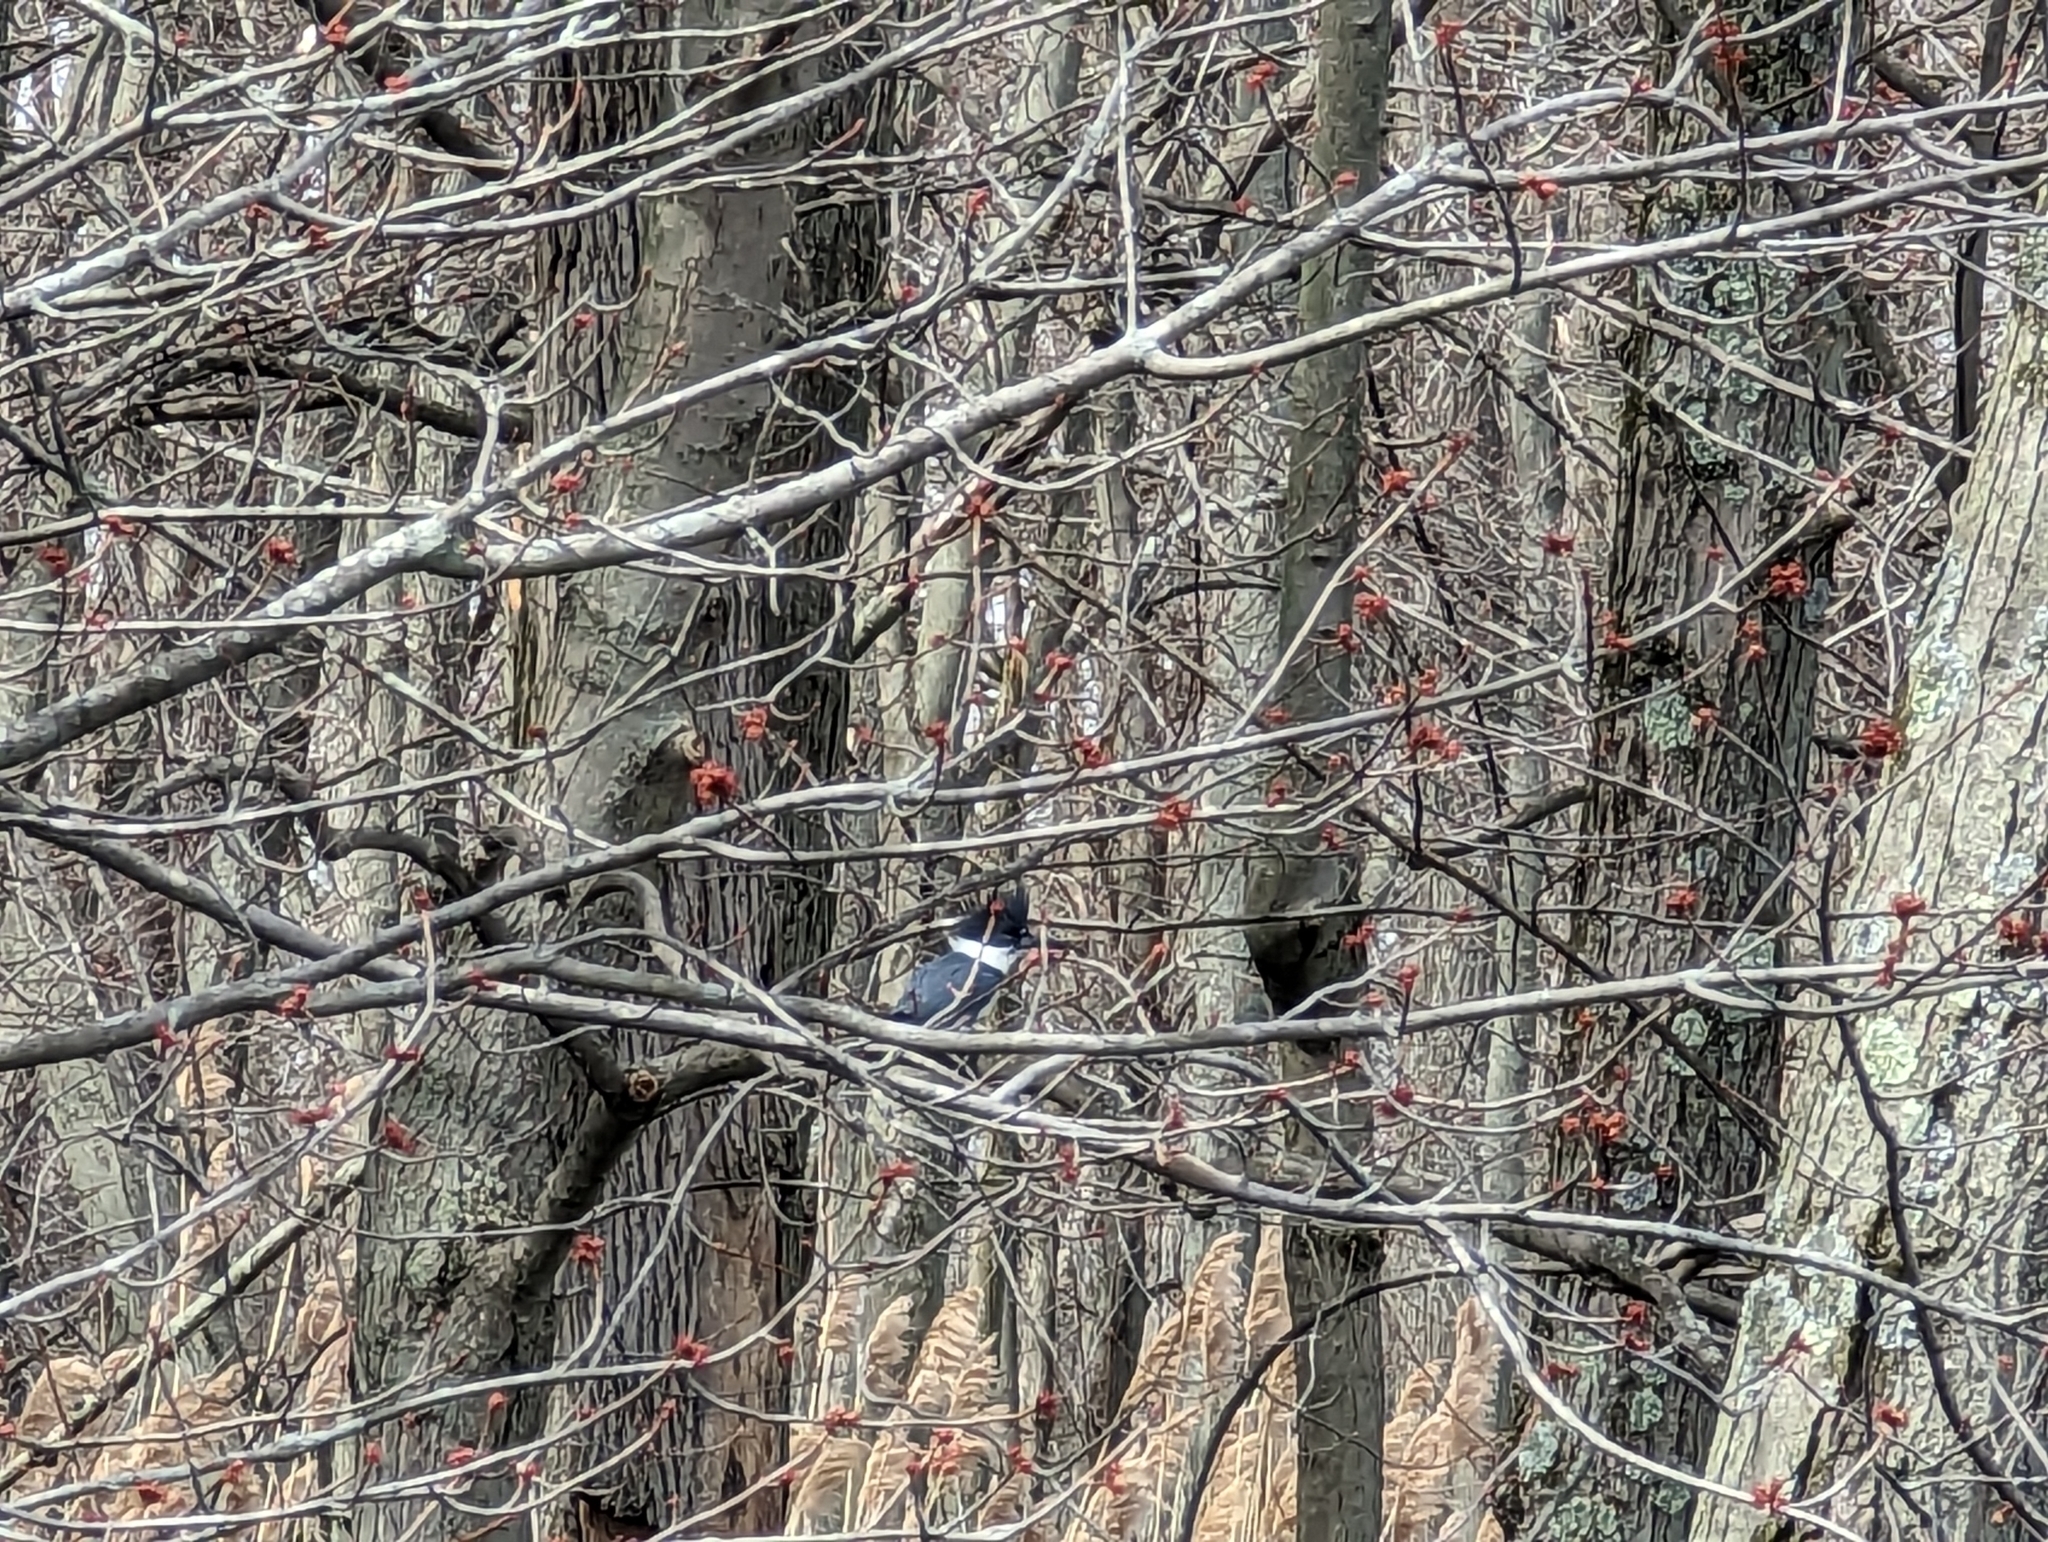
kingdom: Animalia
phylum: Chordata
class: Aves
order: Coraciiformes
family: Alcedinidae
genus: Megaceryle
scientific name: Megaceryle alcyon
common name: Belted kingfisher
